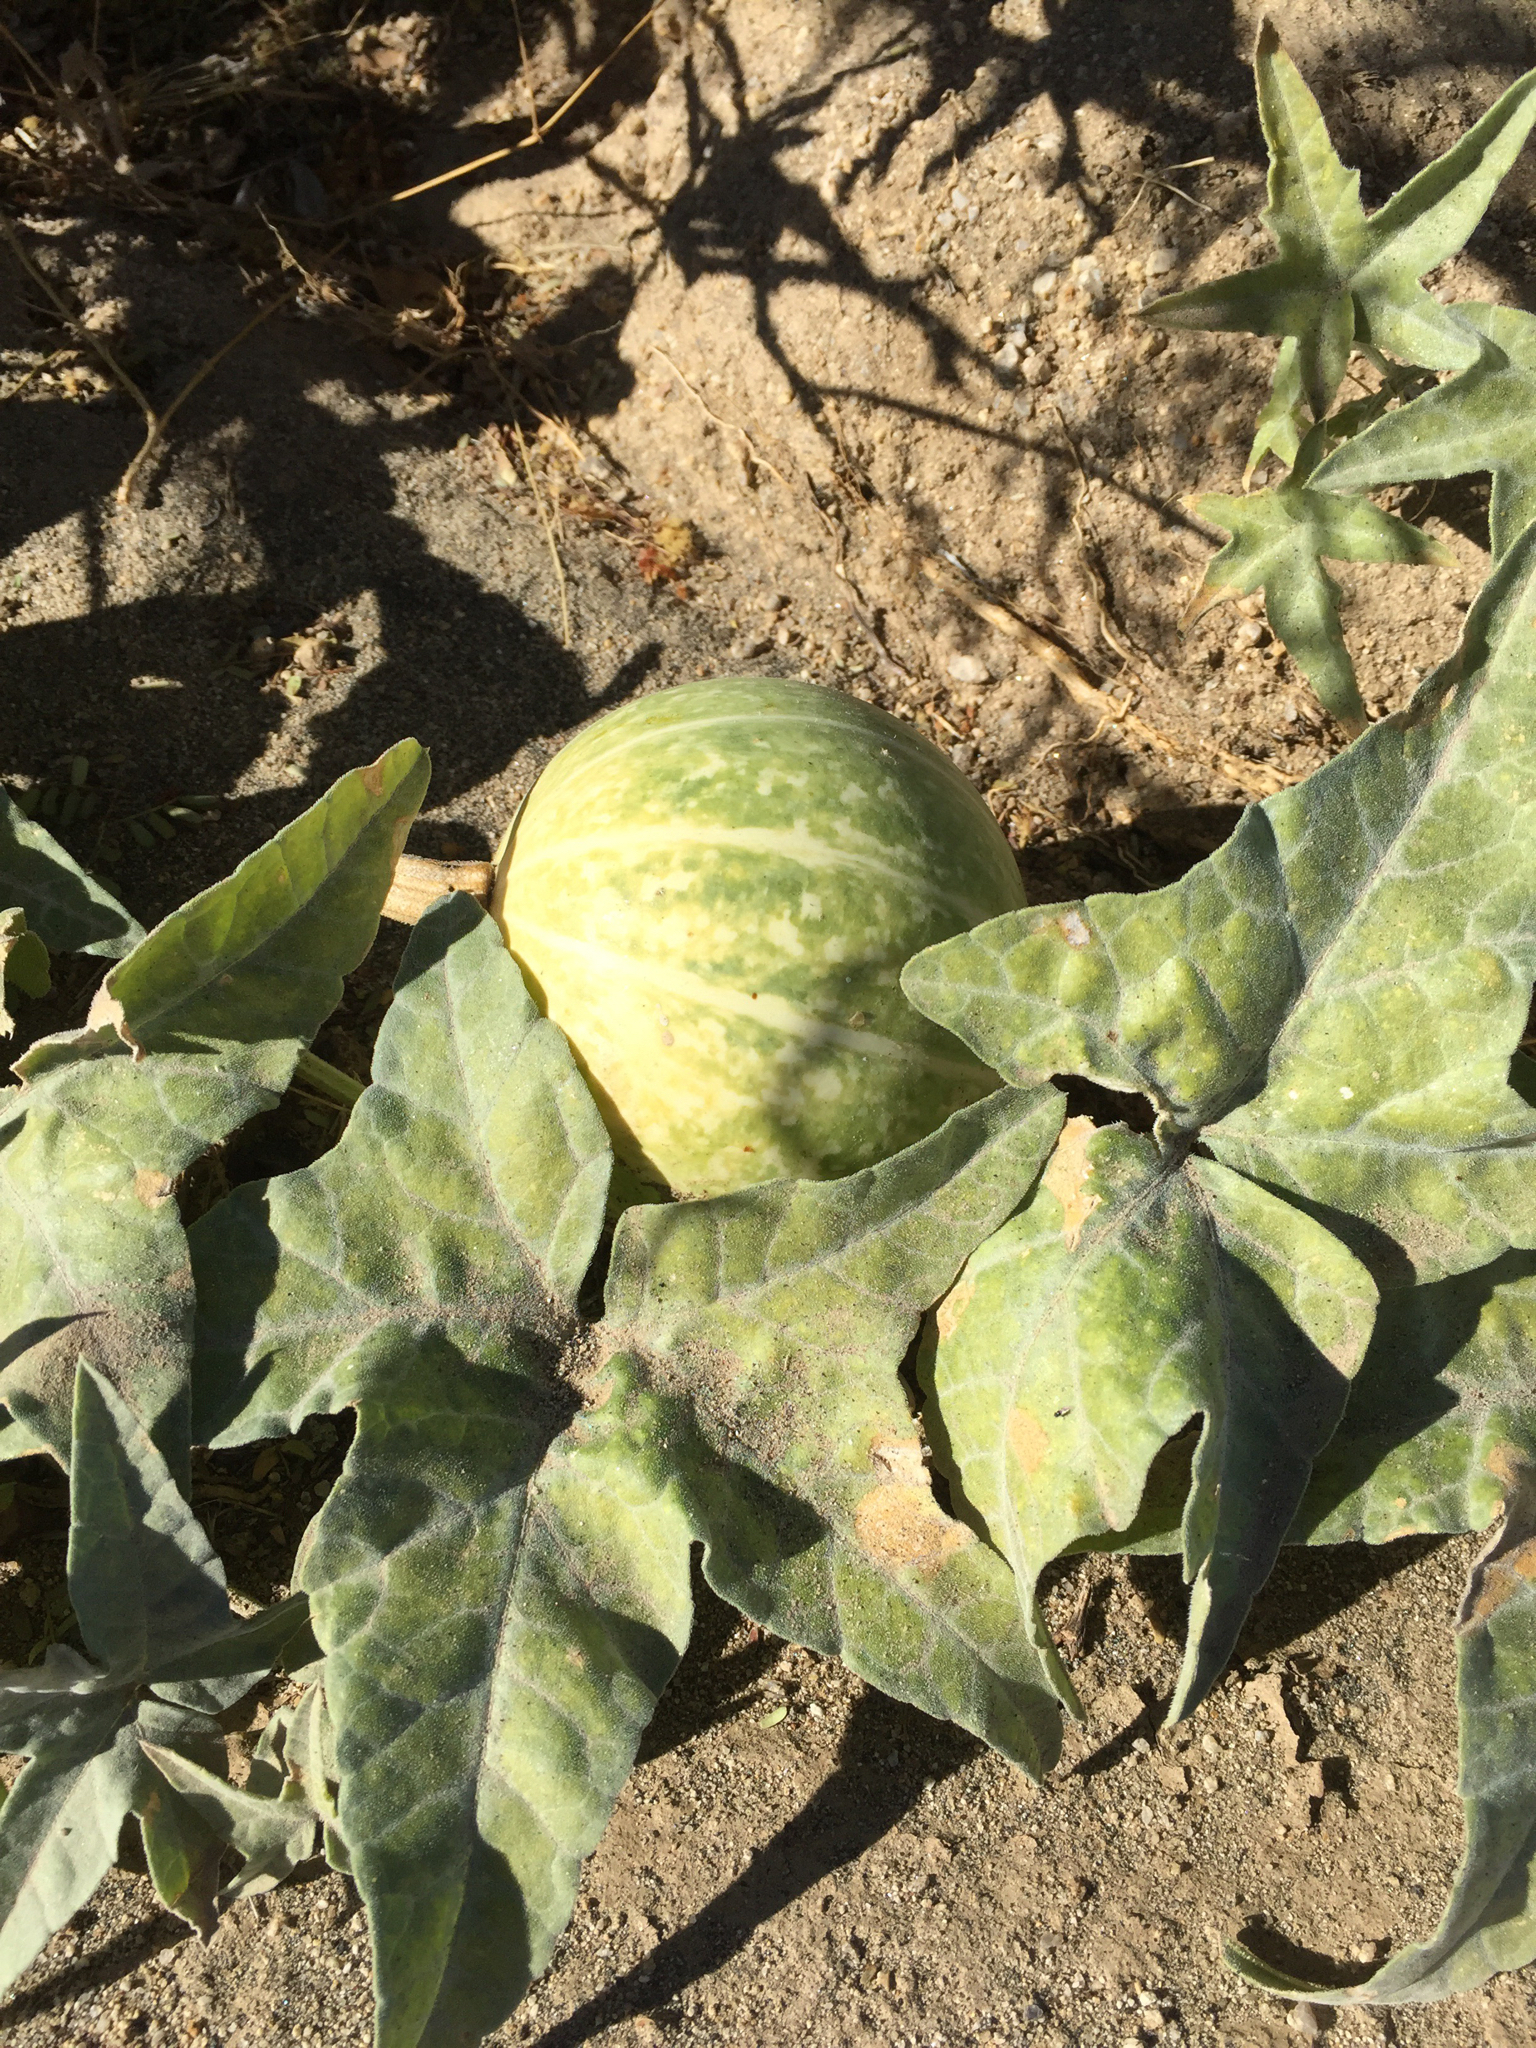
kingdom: Plantae
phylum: Tracheophyta
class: Magnoliopsida
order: Cucurbitales
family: Cucurbitaceae
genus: Cucurbita
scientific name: Cucurbita palmata
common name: Coyote-melon
